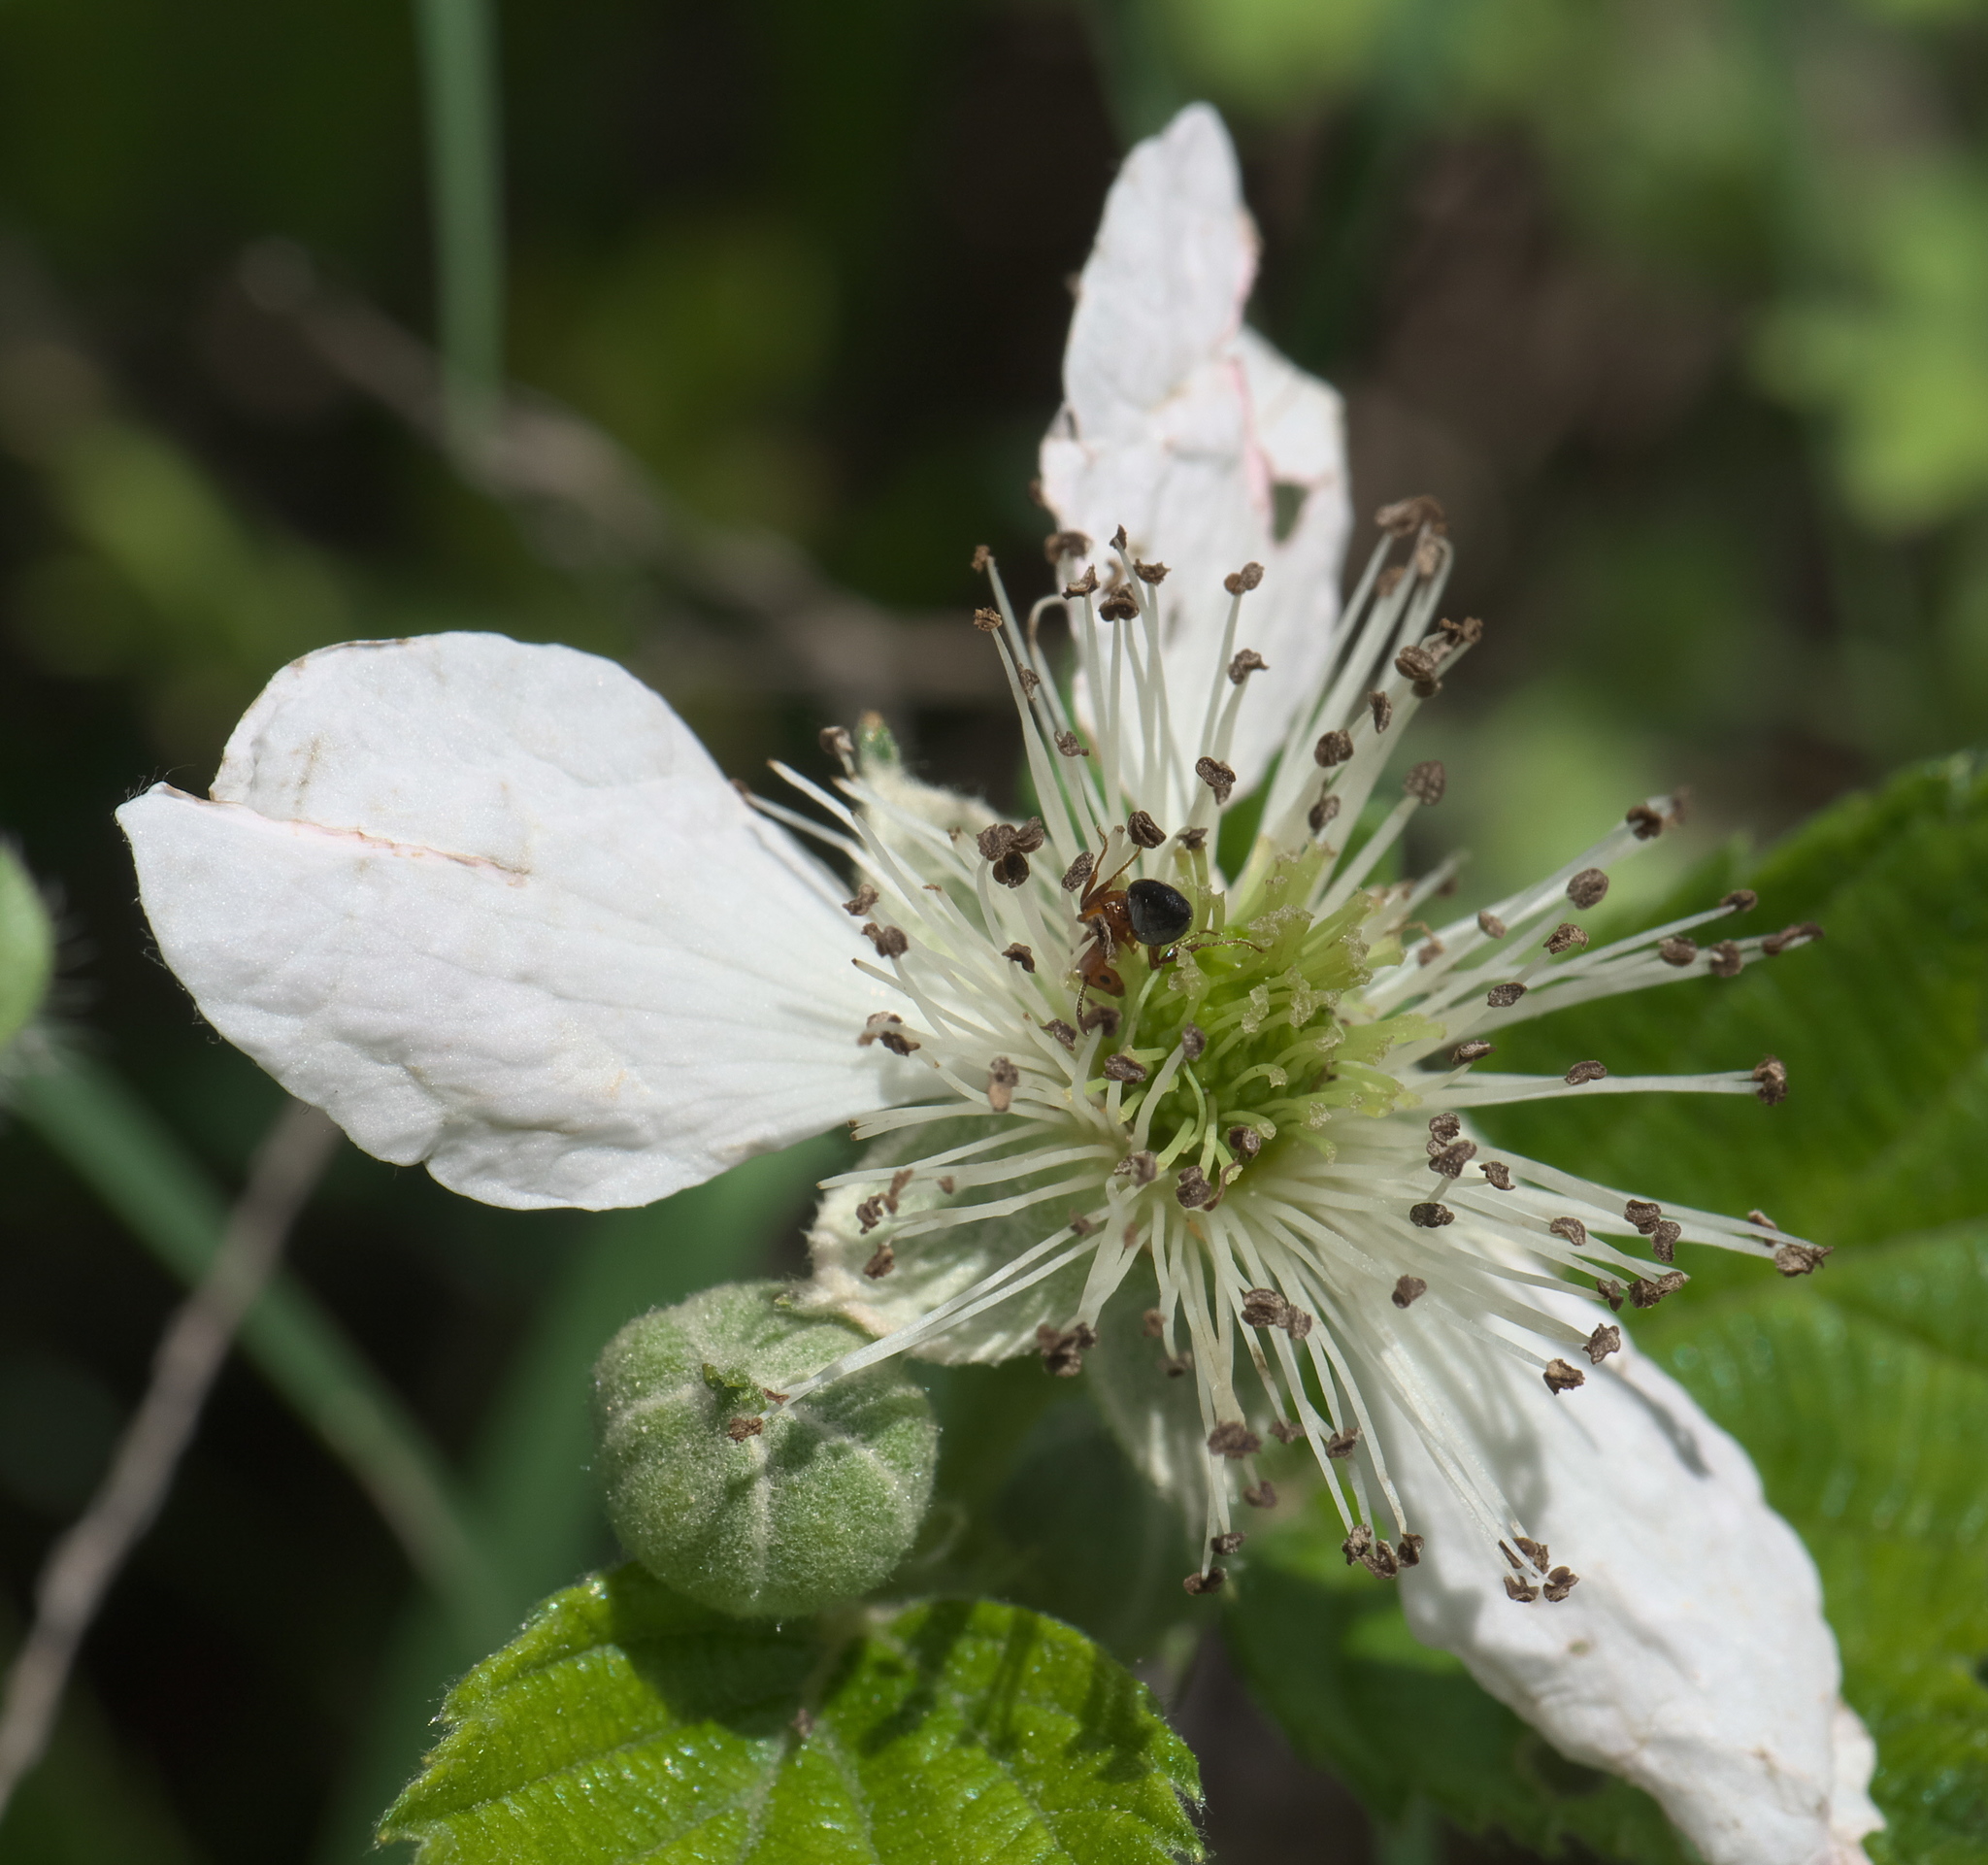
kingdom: Animalia
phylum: Arthropoda
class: Insecta
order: Hymenoptera
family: Formicidae
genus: Crematogaster
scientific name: Crematogaster laeviuscula
